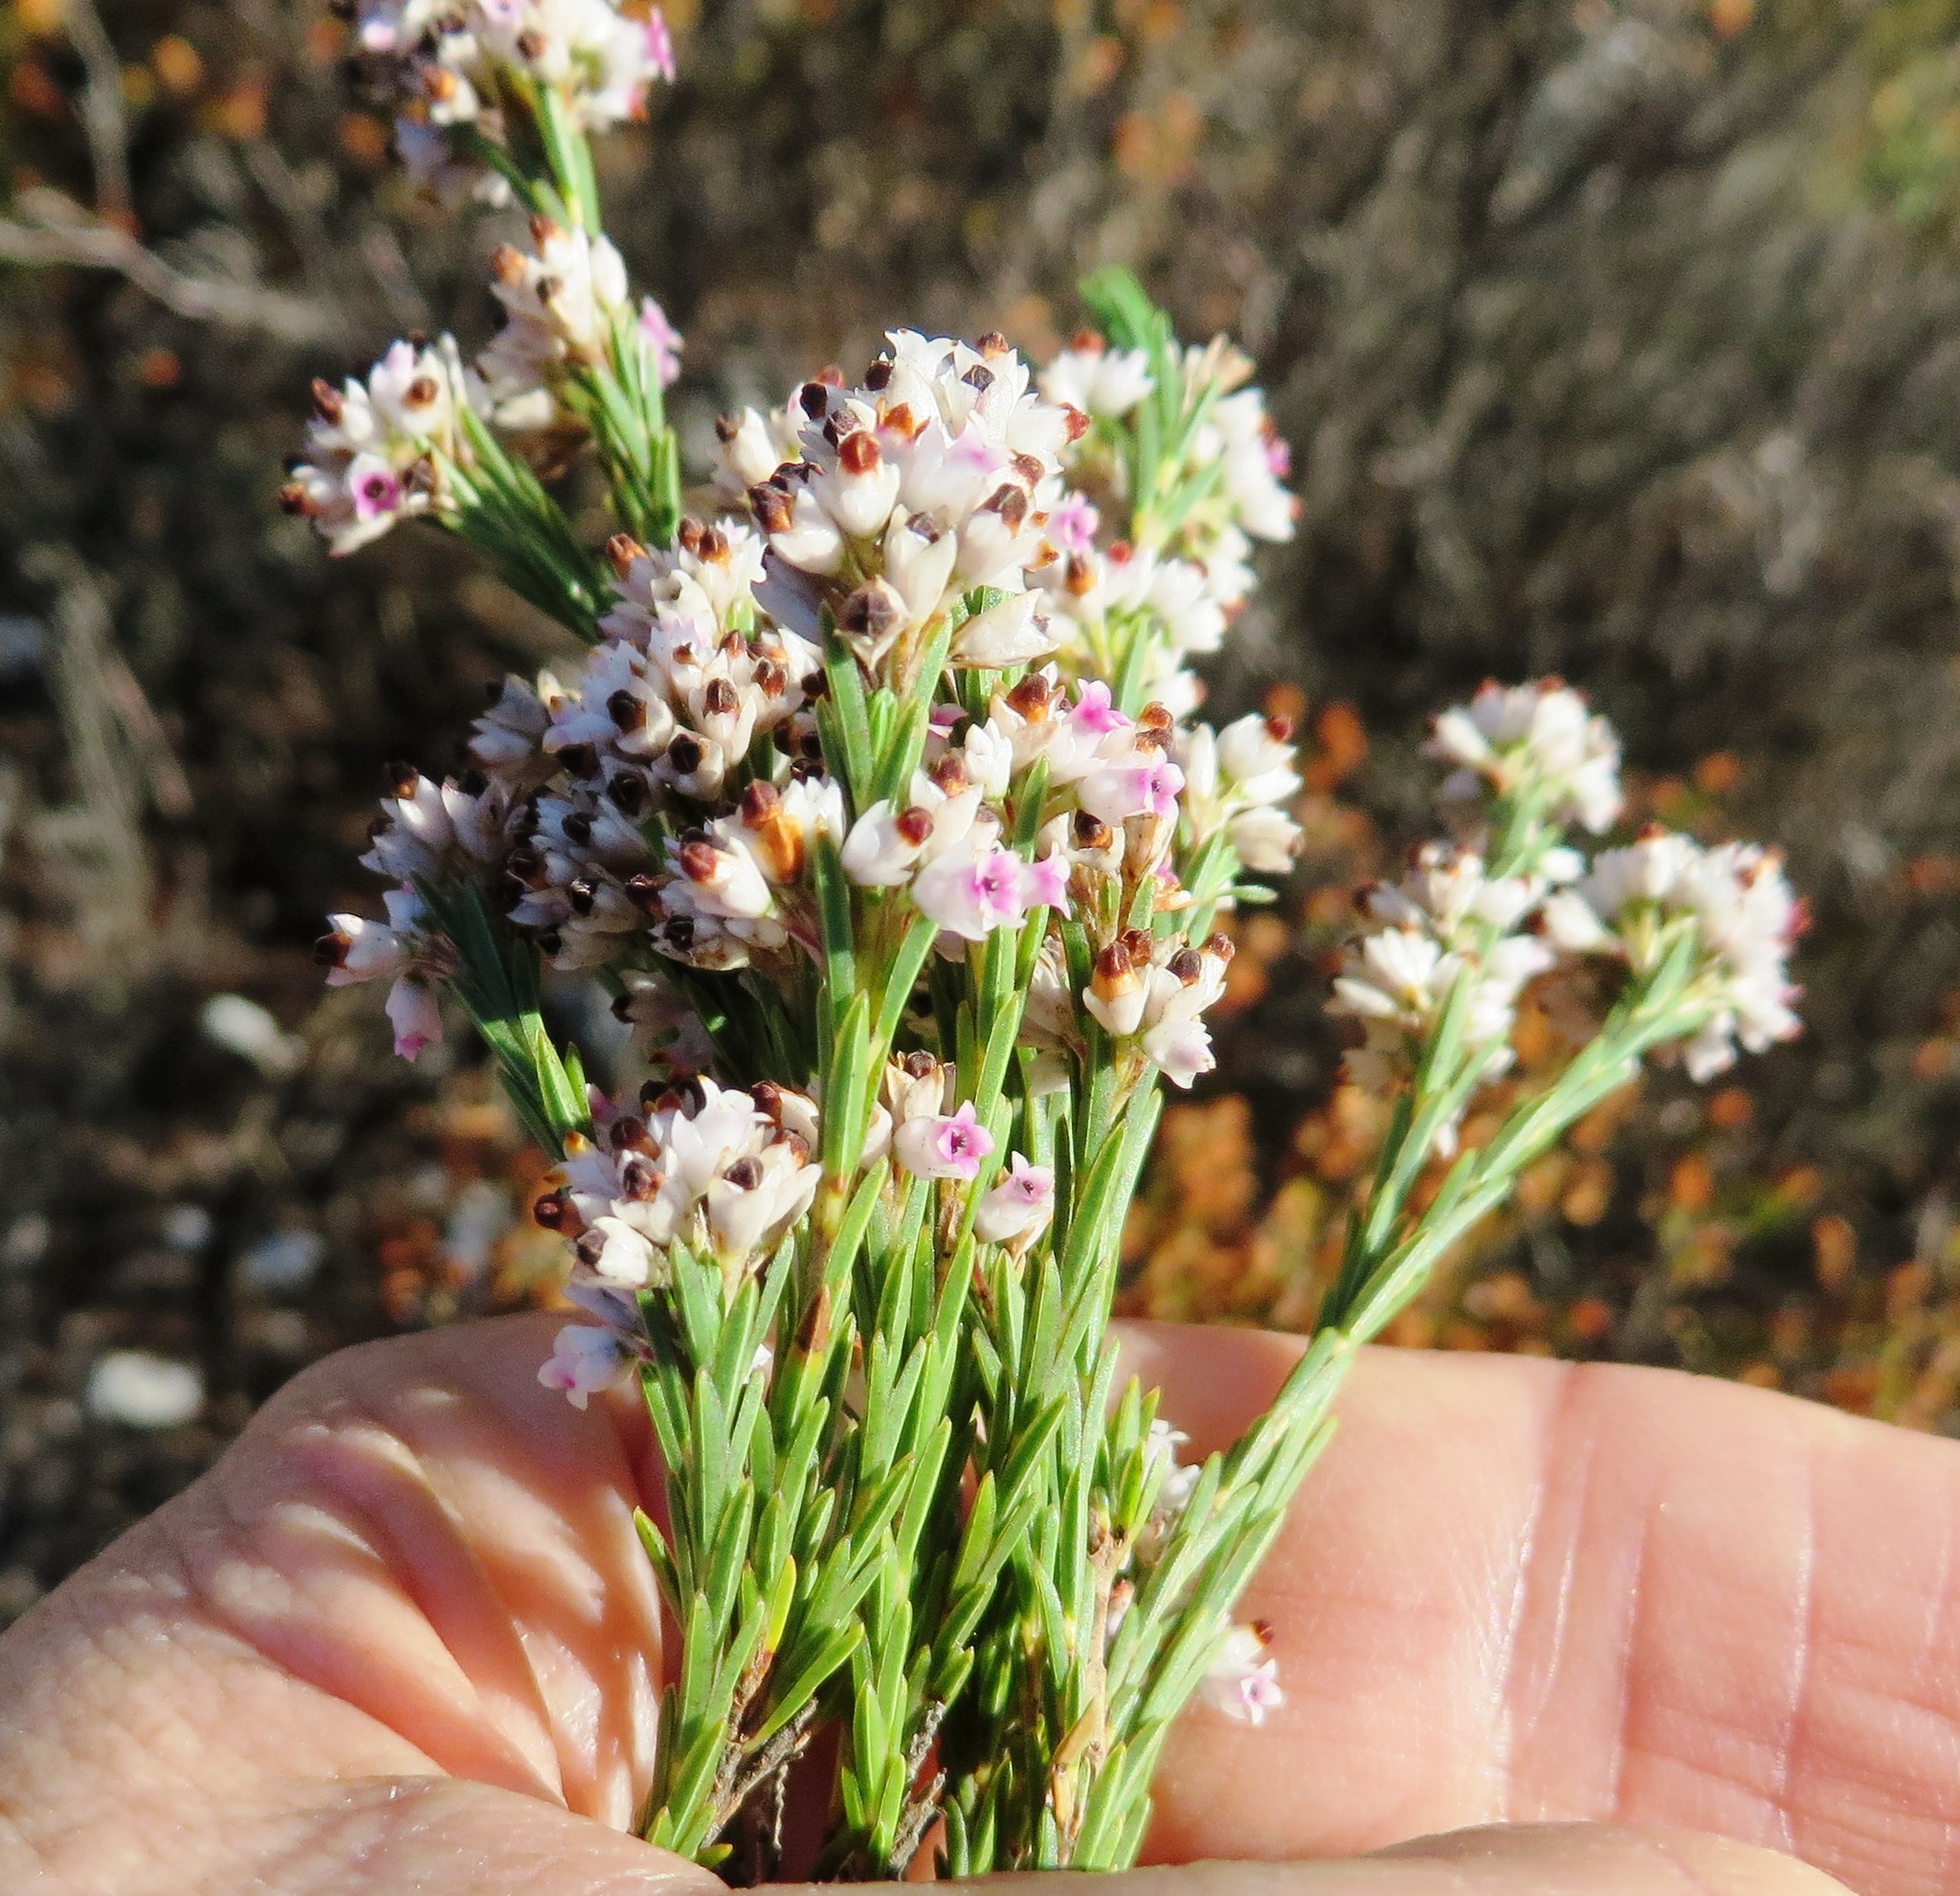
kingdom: Plantae
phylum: Tracheophyta
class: Magnoliopsida
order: Ericales
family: Ericaceae
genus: Erica
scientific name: Erica articularis
